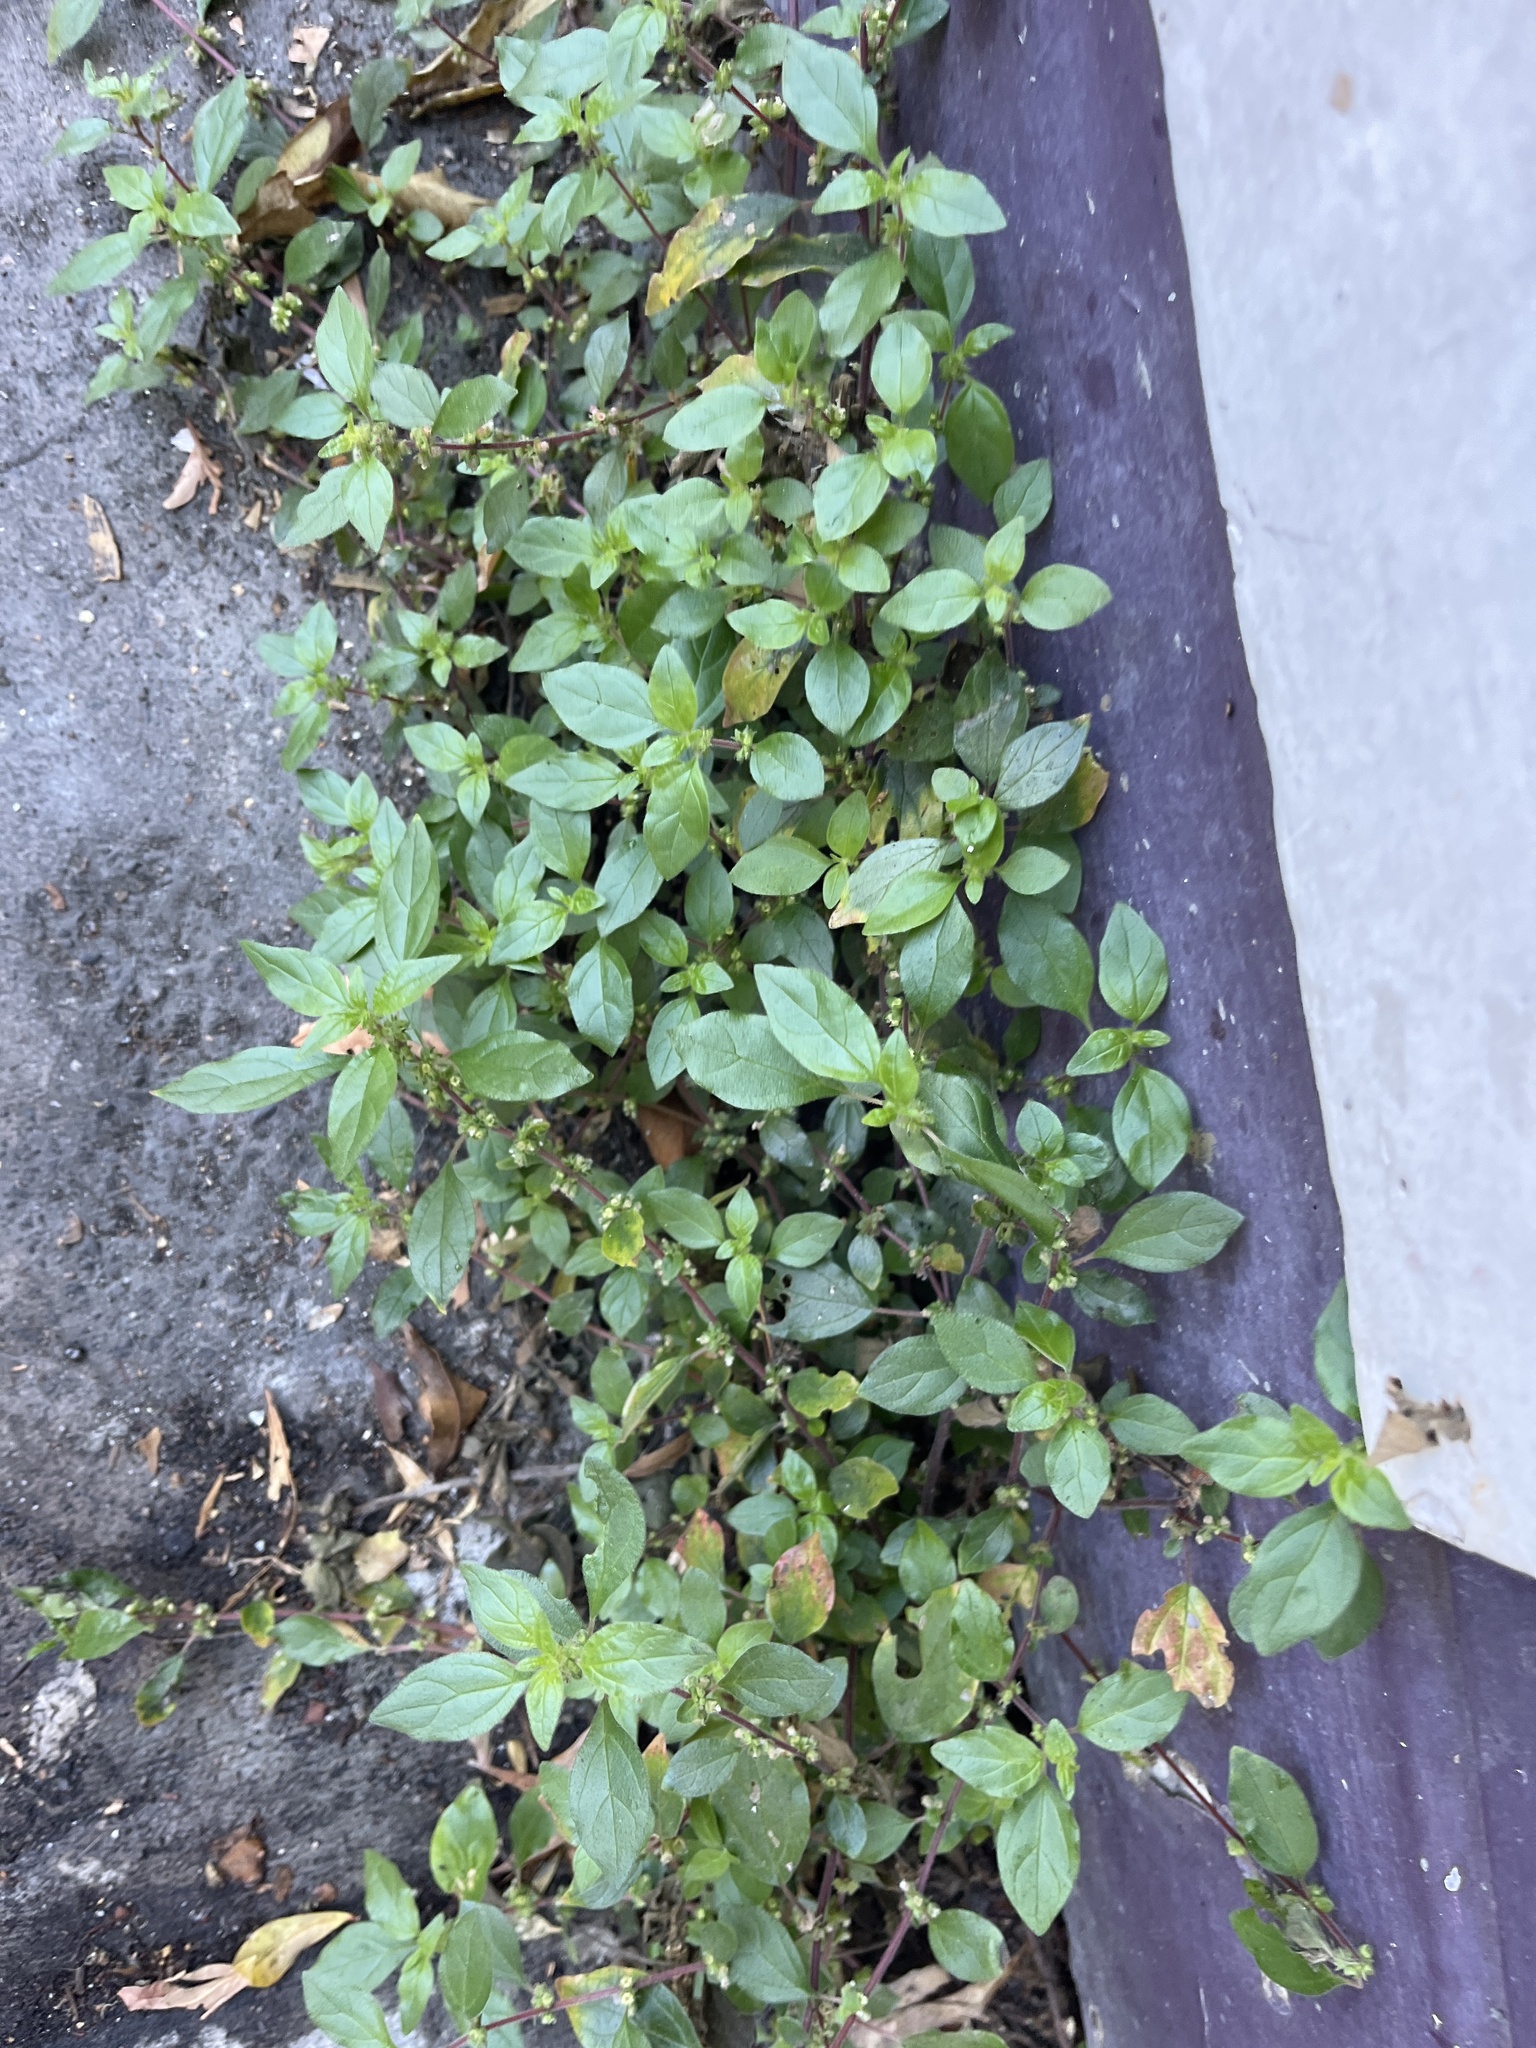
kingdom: Plantae
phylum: Tracheophyta
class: Magnoliopsida
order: Rosales
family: Urticaceae
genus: Parietaria
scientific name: Parietaria judaica
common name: Pellitory-of-the-wall
